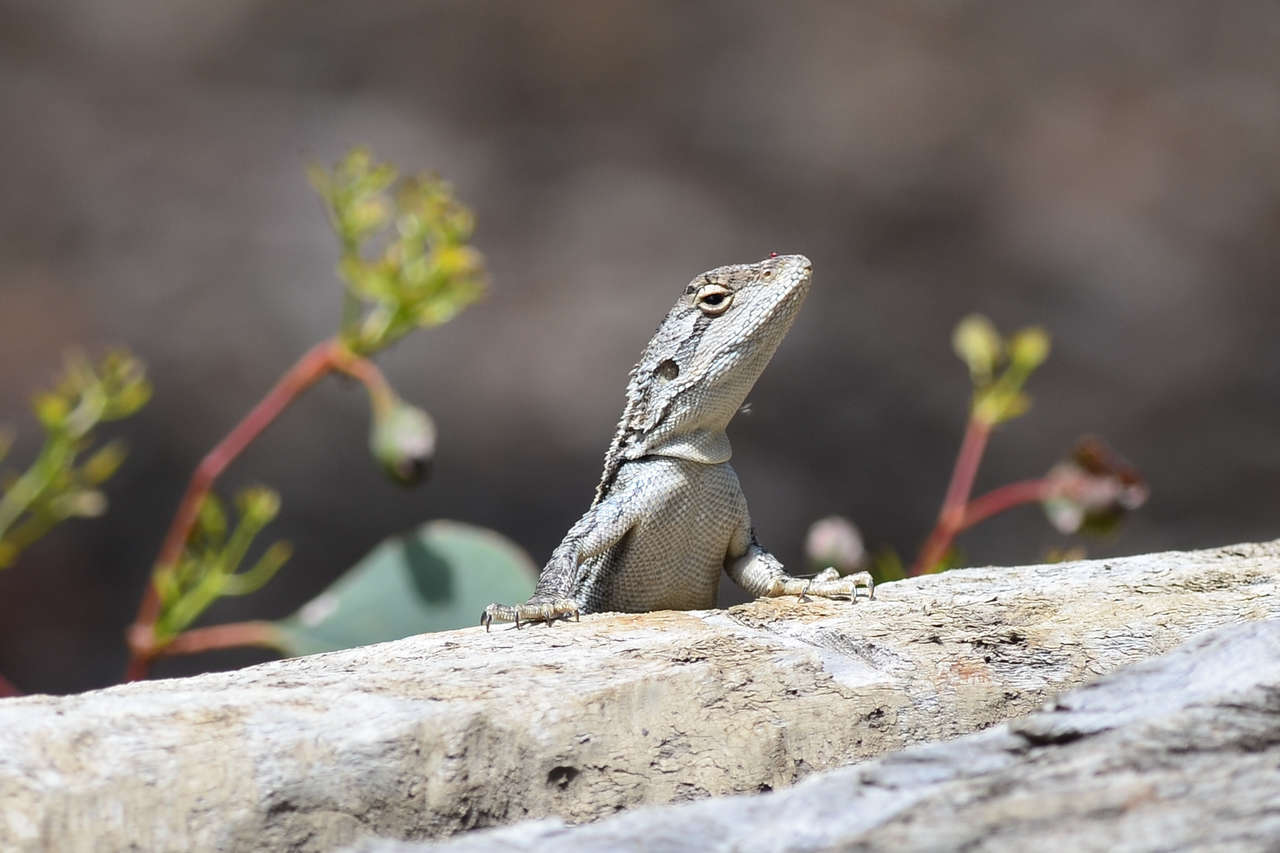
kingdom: Animalia
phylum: Chordata
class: Squamata
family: Agamidae
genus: Amphibolurus
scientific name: Amphibolurus muricatus
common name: Jacky lizard
